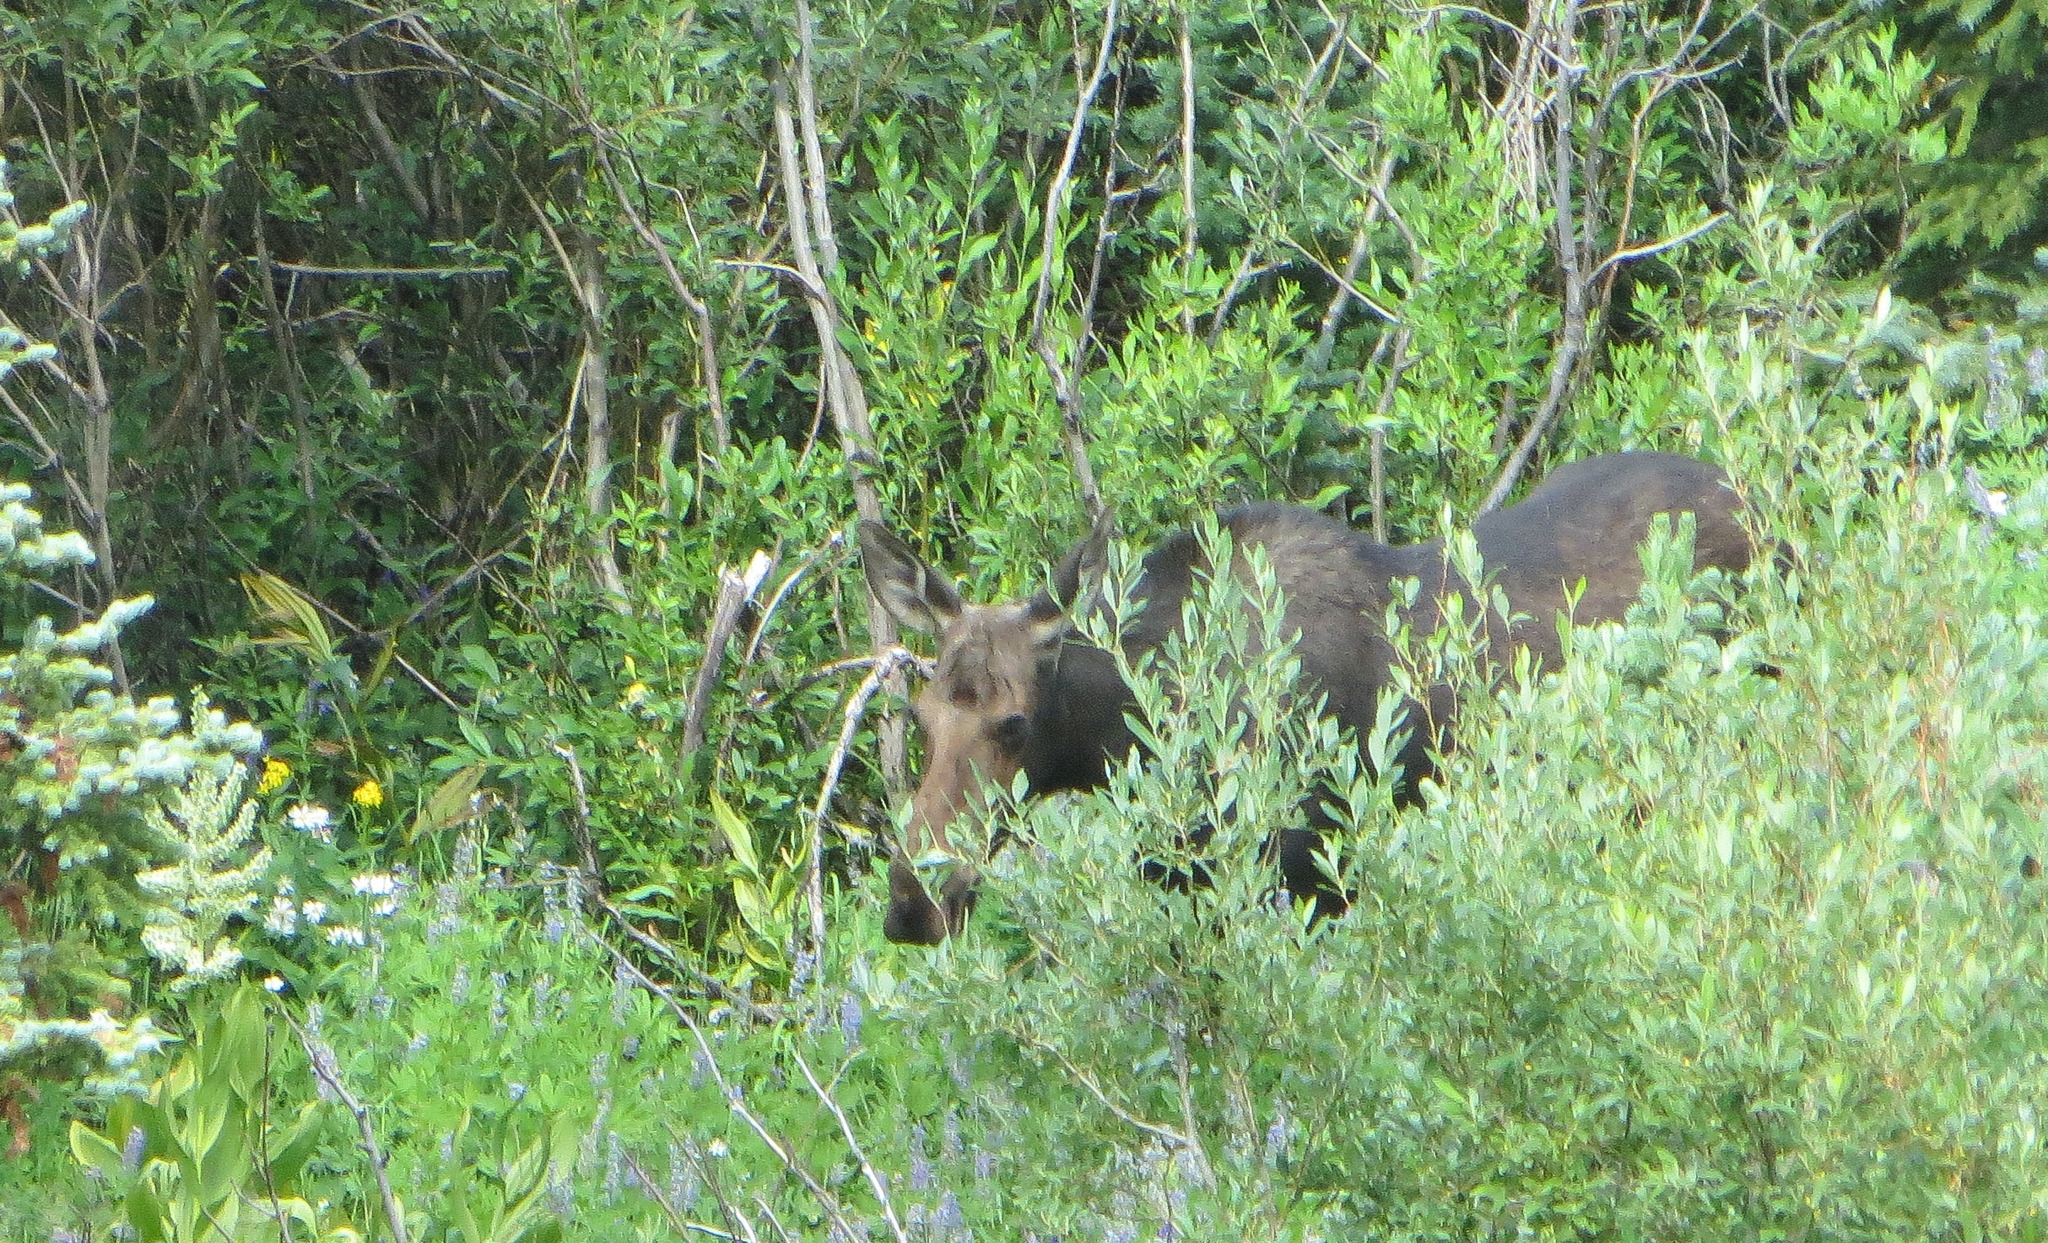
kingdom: Animalia
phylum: Chordata
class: Mammalia
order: Artiodactyla
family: Cervidae
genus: Alces
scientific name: Alces alces
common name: Moose
